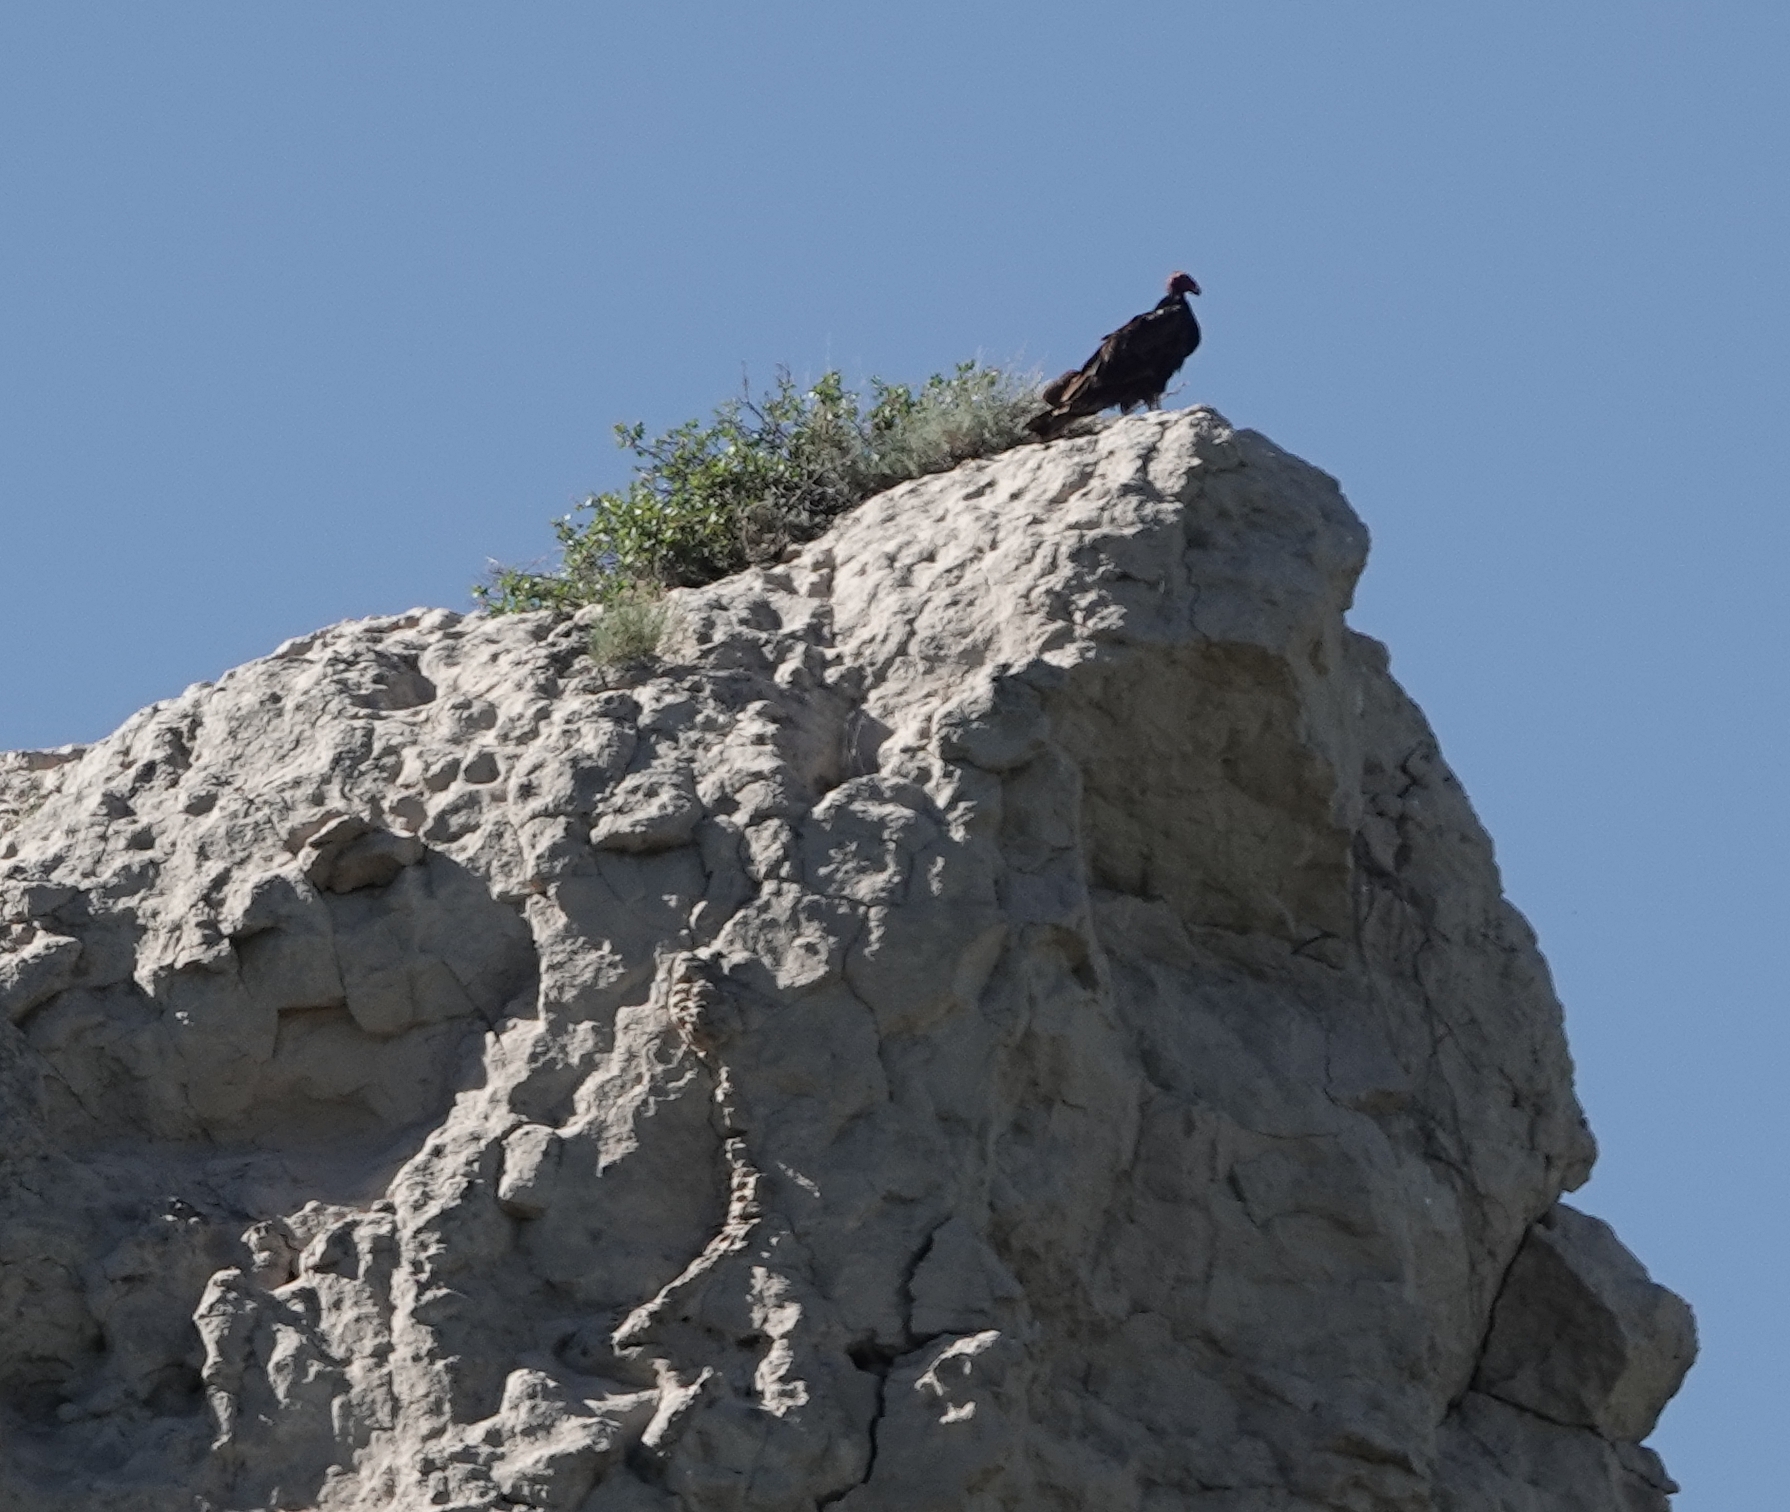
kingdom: Animalia
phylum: Chordata
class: Aves
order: Accipitriformes
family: Cathartidae
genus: Cathartes
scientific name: Cathartes aura
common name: Turkey vulture
